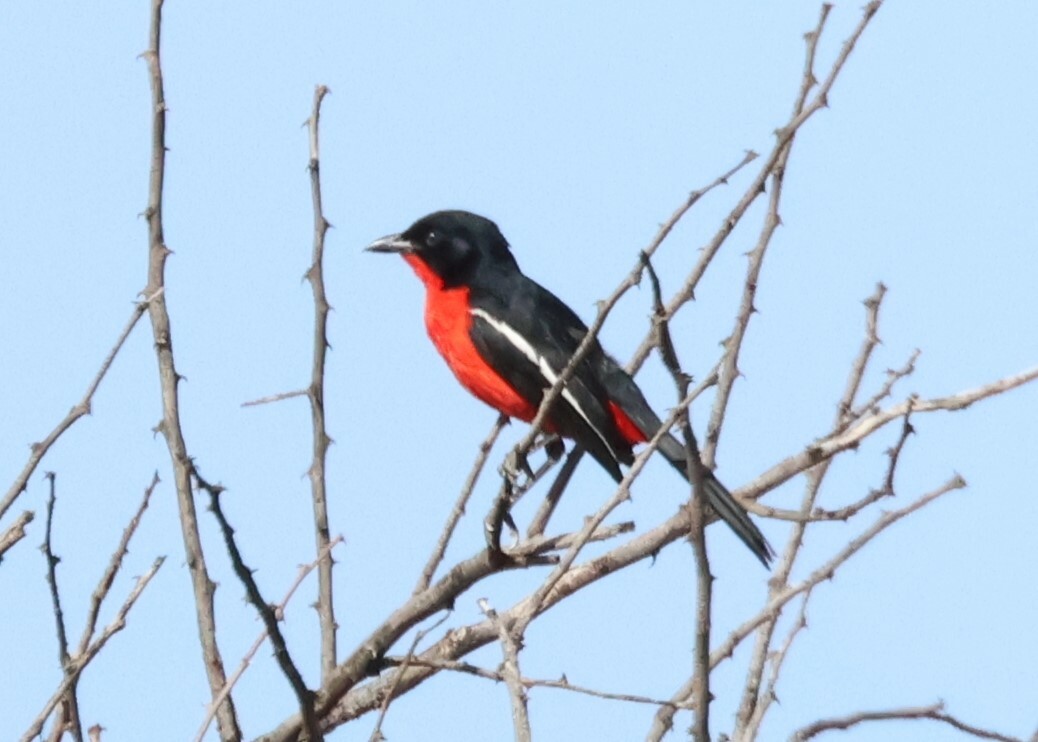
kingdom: Animalia
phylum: Chordata
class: Aves
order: Passeriformes
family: Malaconotidae
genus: Laniarius
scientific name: Laniarius atrococcineus
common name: Crimson-breasted shrike
